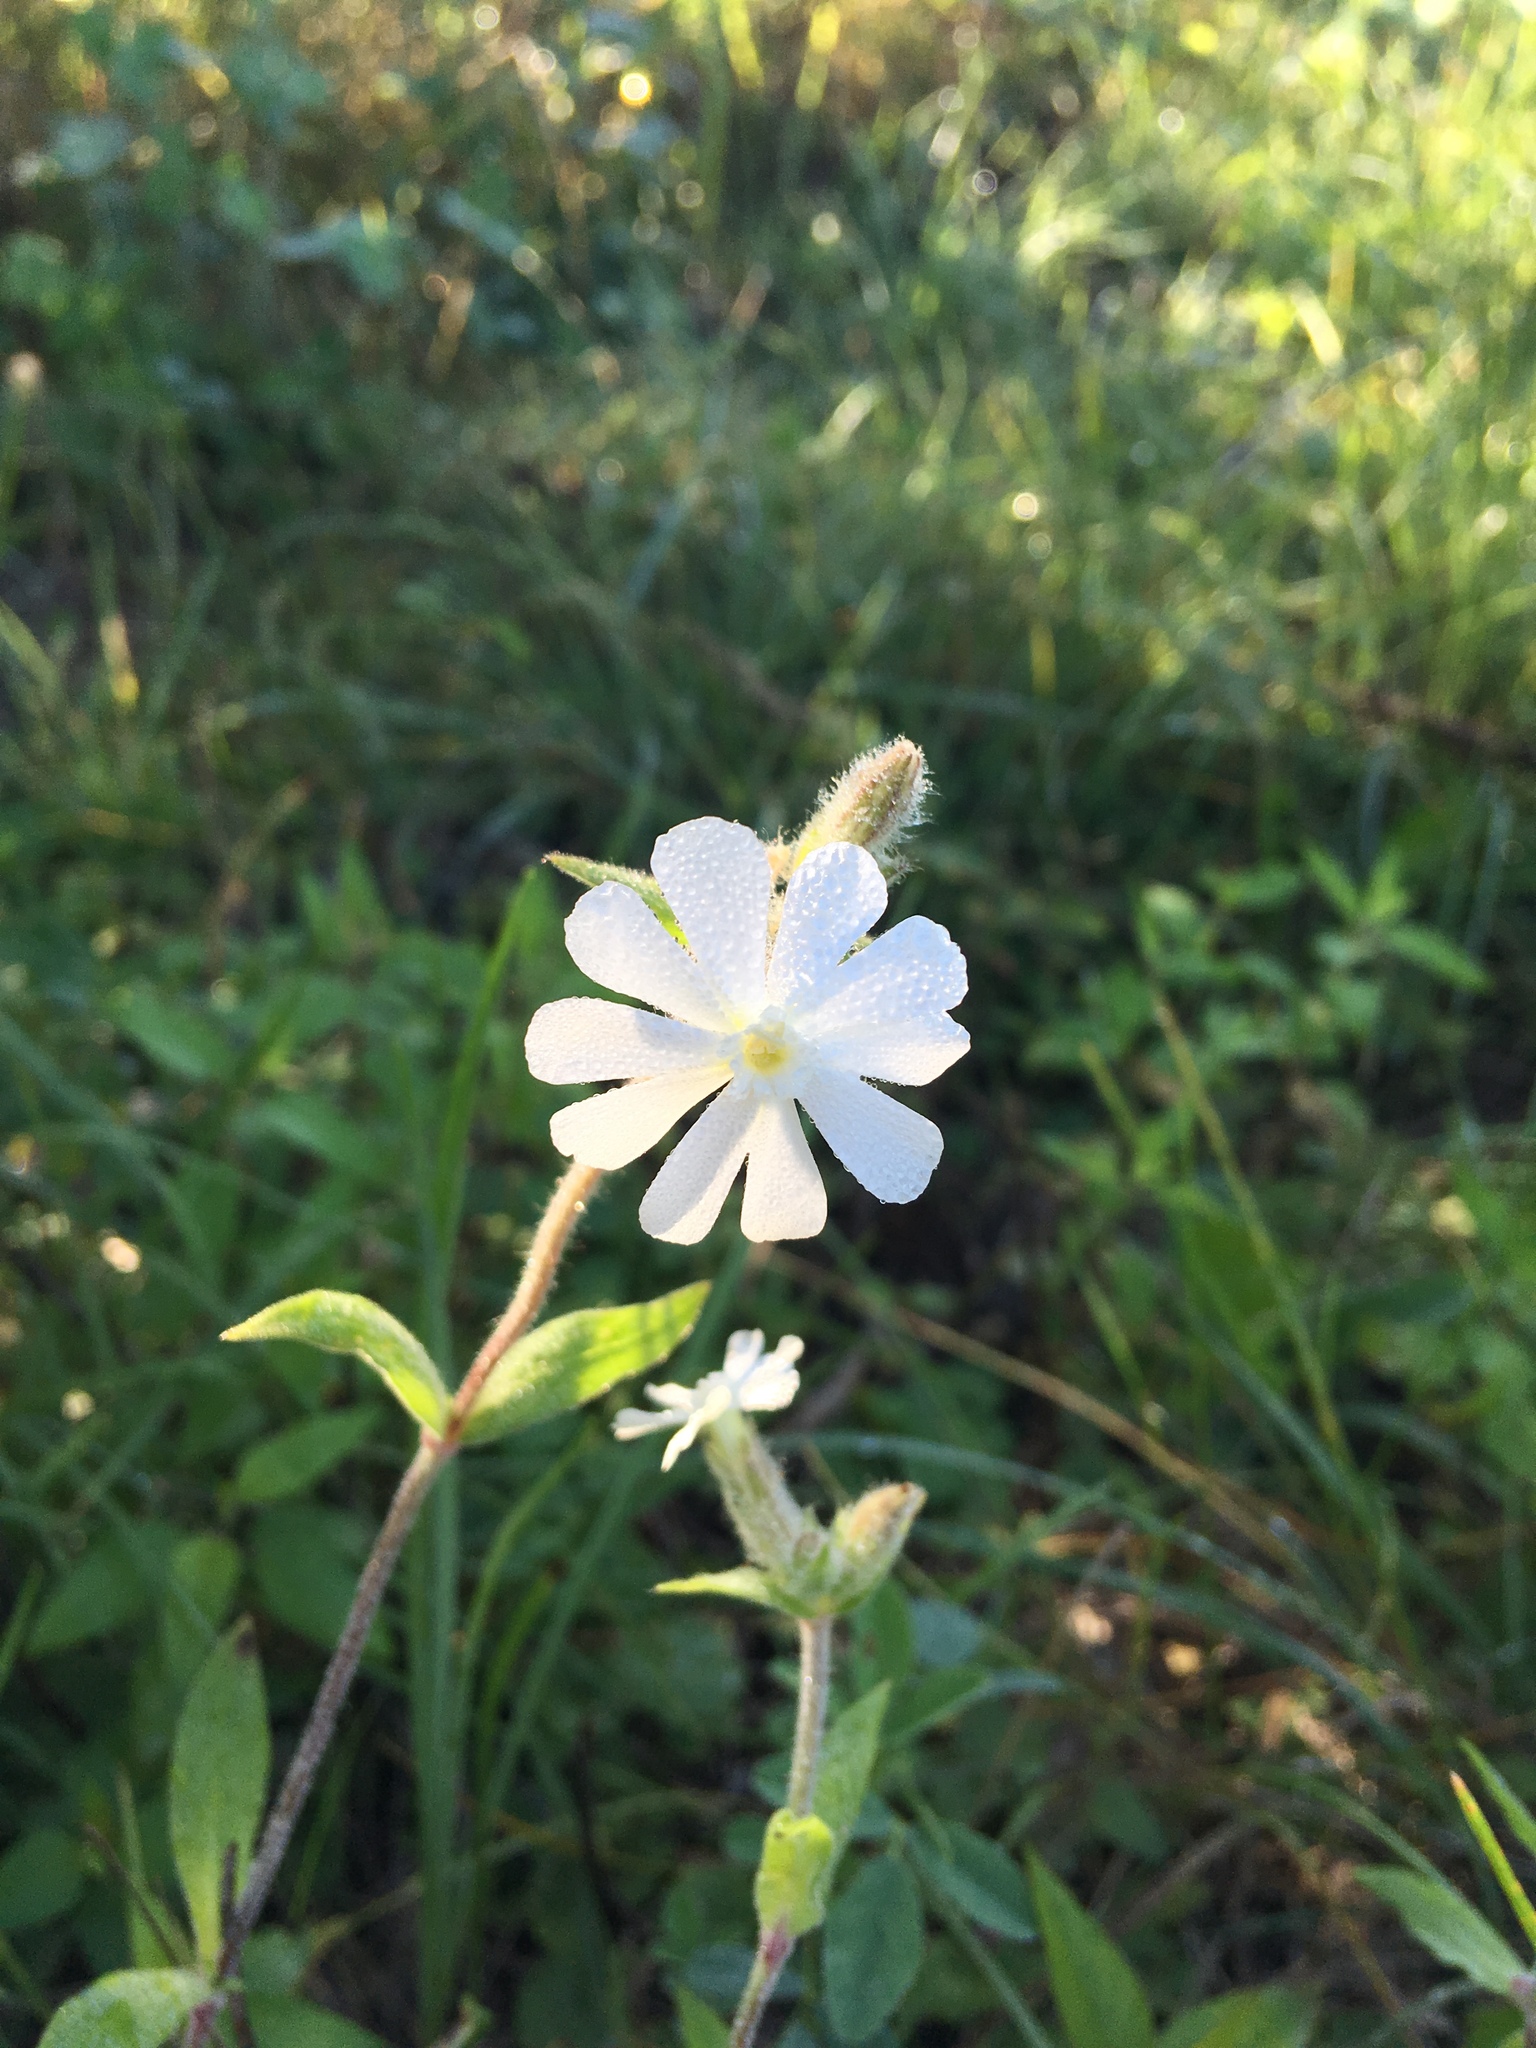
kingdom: Plantae
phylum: Tracheophyta
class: Magnoliopsida
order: Caryophyllales
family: Caryophyllaceae
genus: Silene
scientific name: Silene latifolia
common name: White campion
